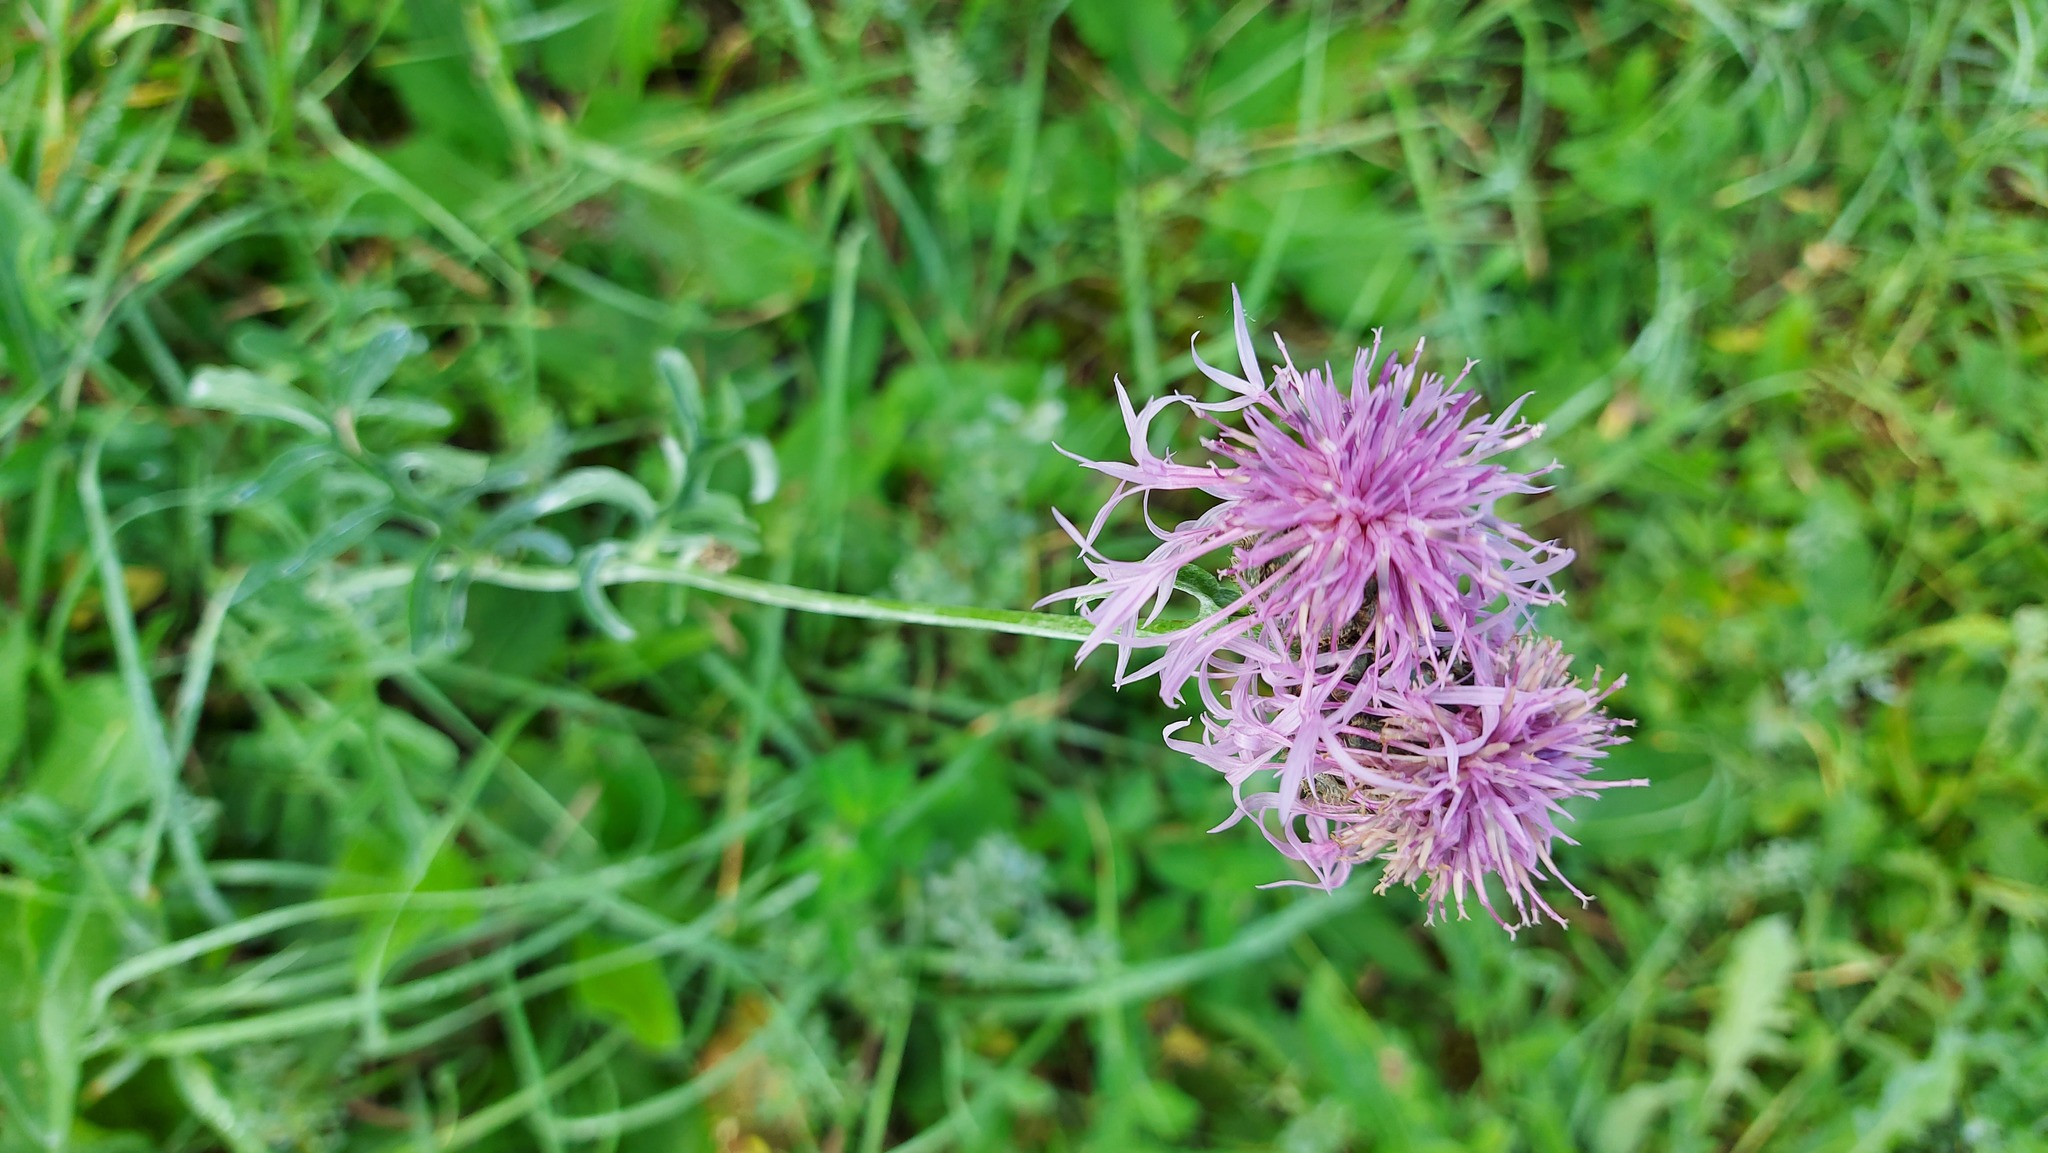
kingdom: Plantae
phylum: Tracheophyta
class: Magnoliopsida
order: Asterales
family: Asteraceae
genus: Centaurea
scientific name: Centaurea scabiosa
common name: Greater knapweed
